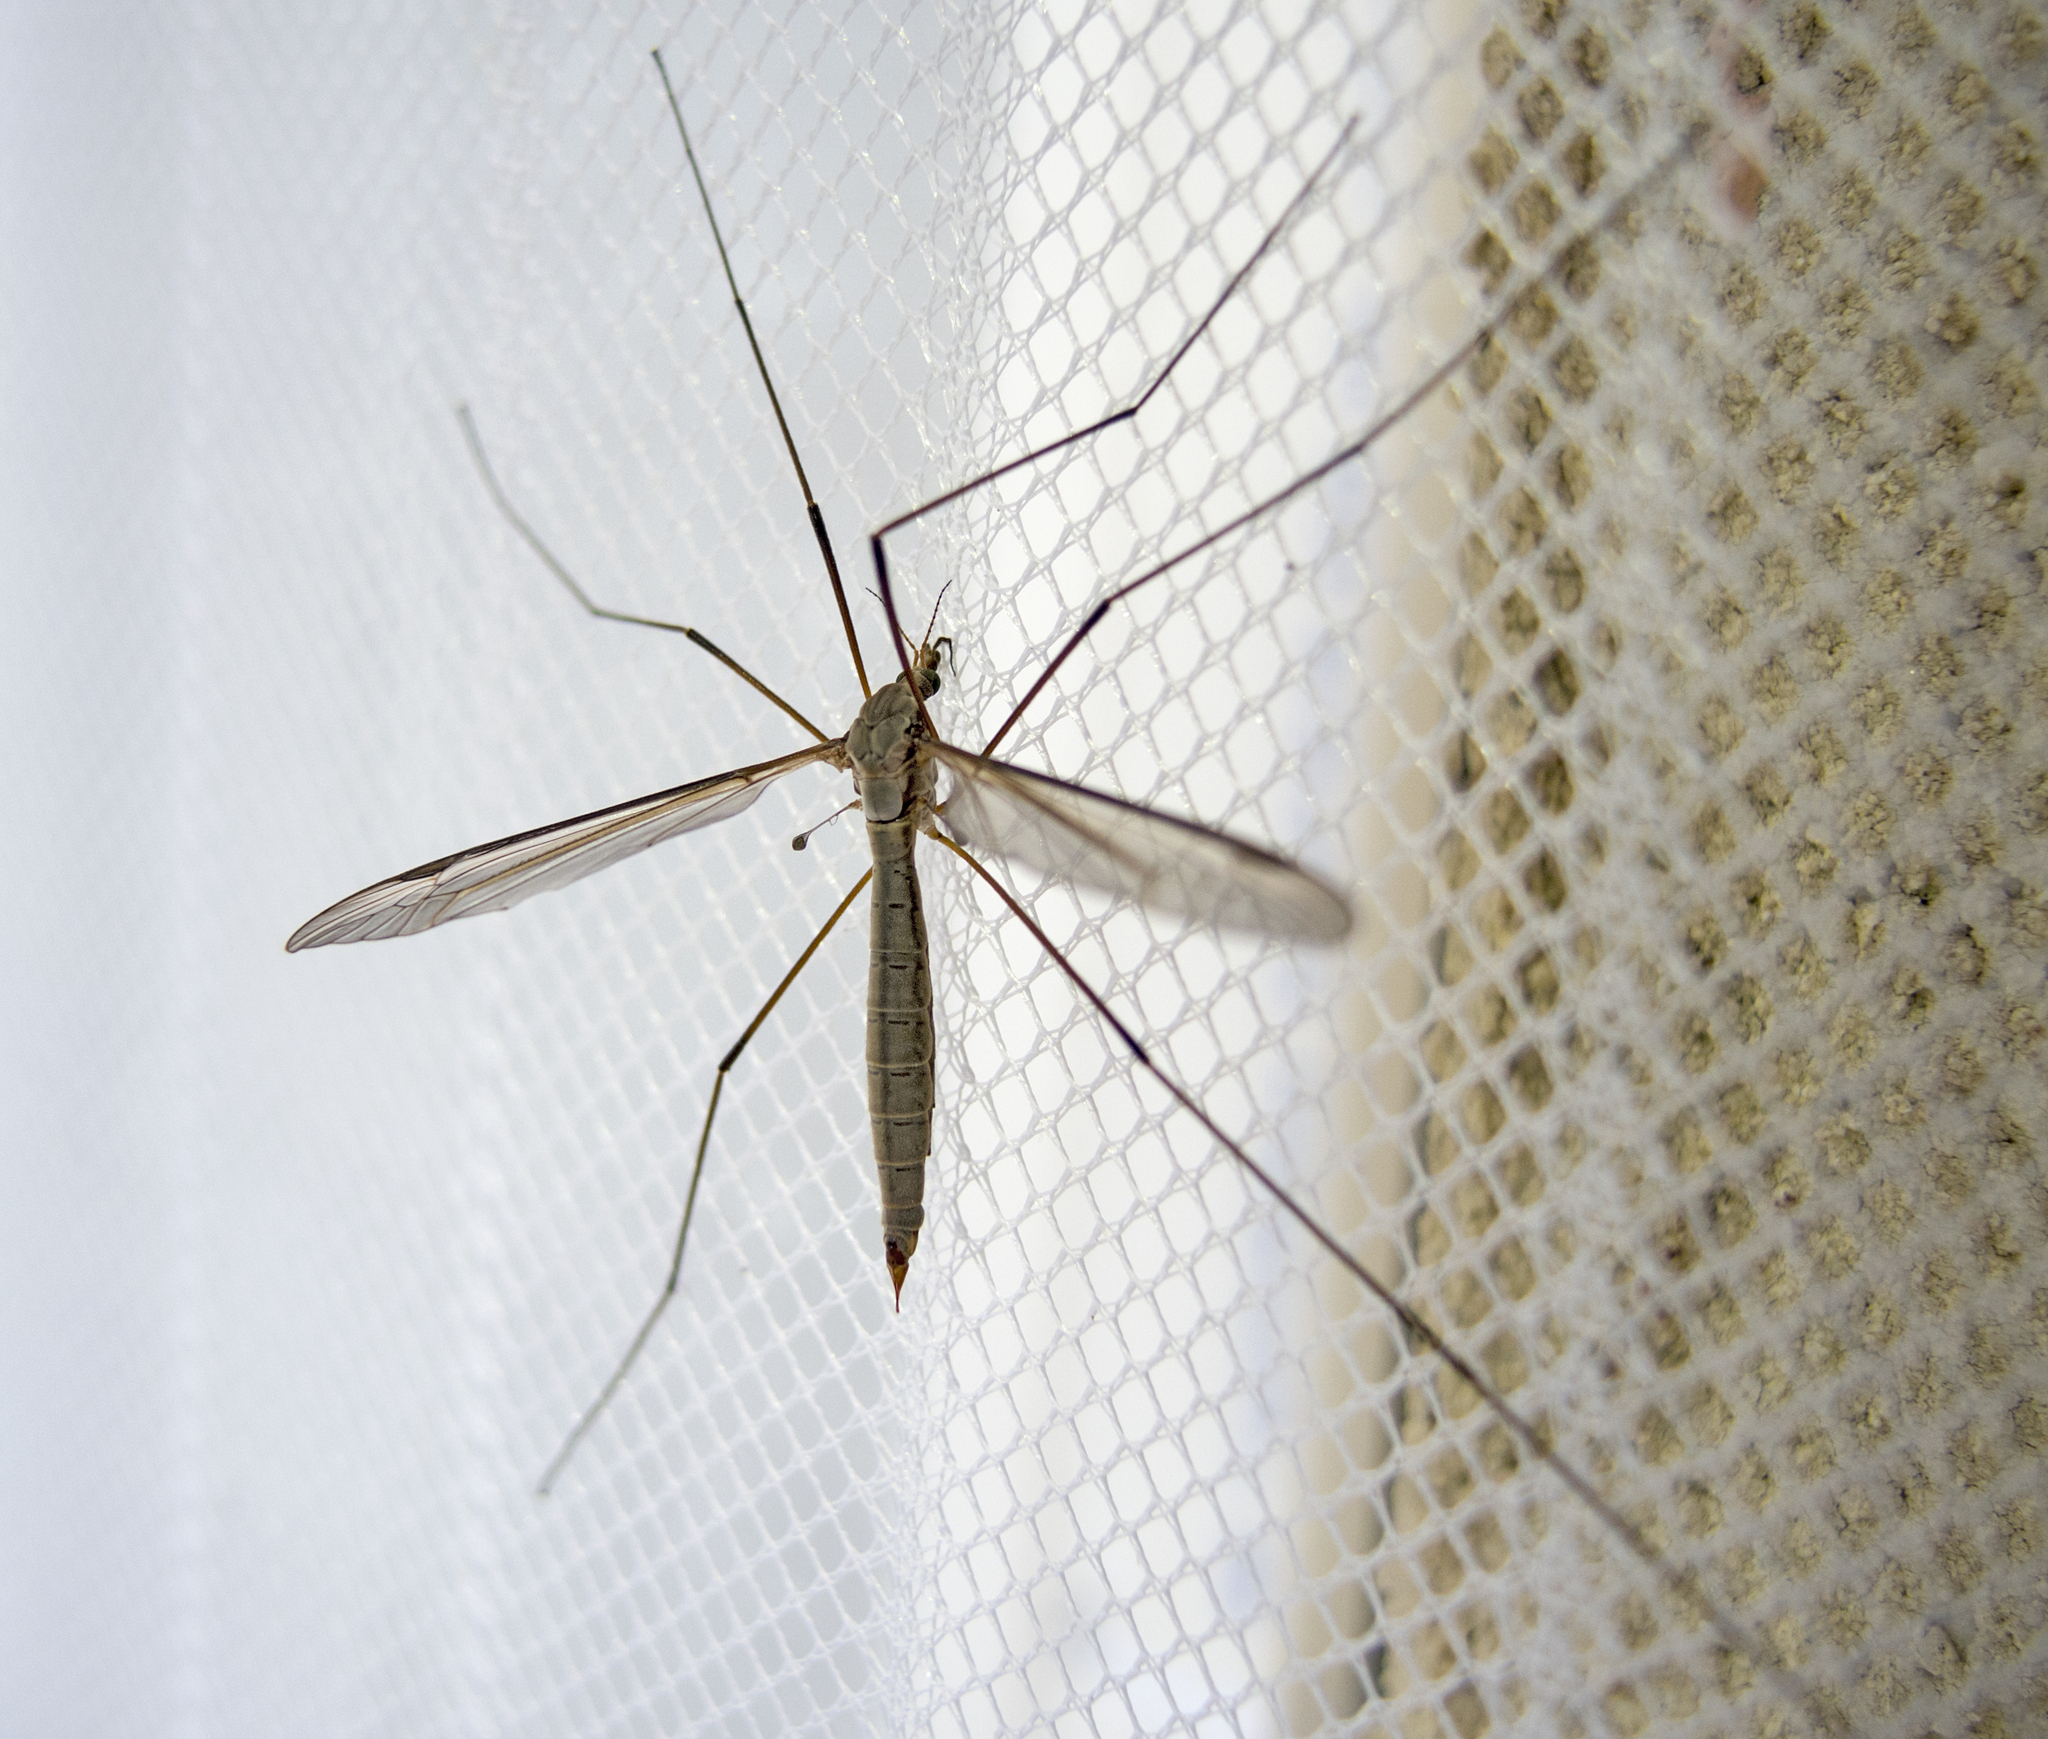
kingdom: Animalia
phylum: Arthropoda
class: Insecta
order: Diptera
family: Tipulidae
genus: Tipula
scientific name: Tipula oleracea
